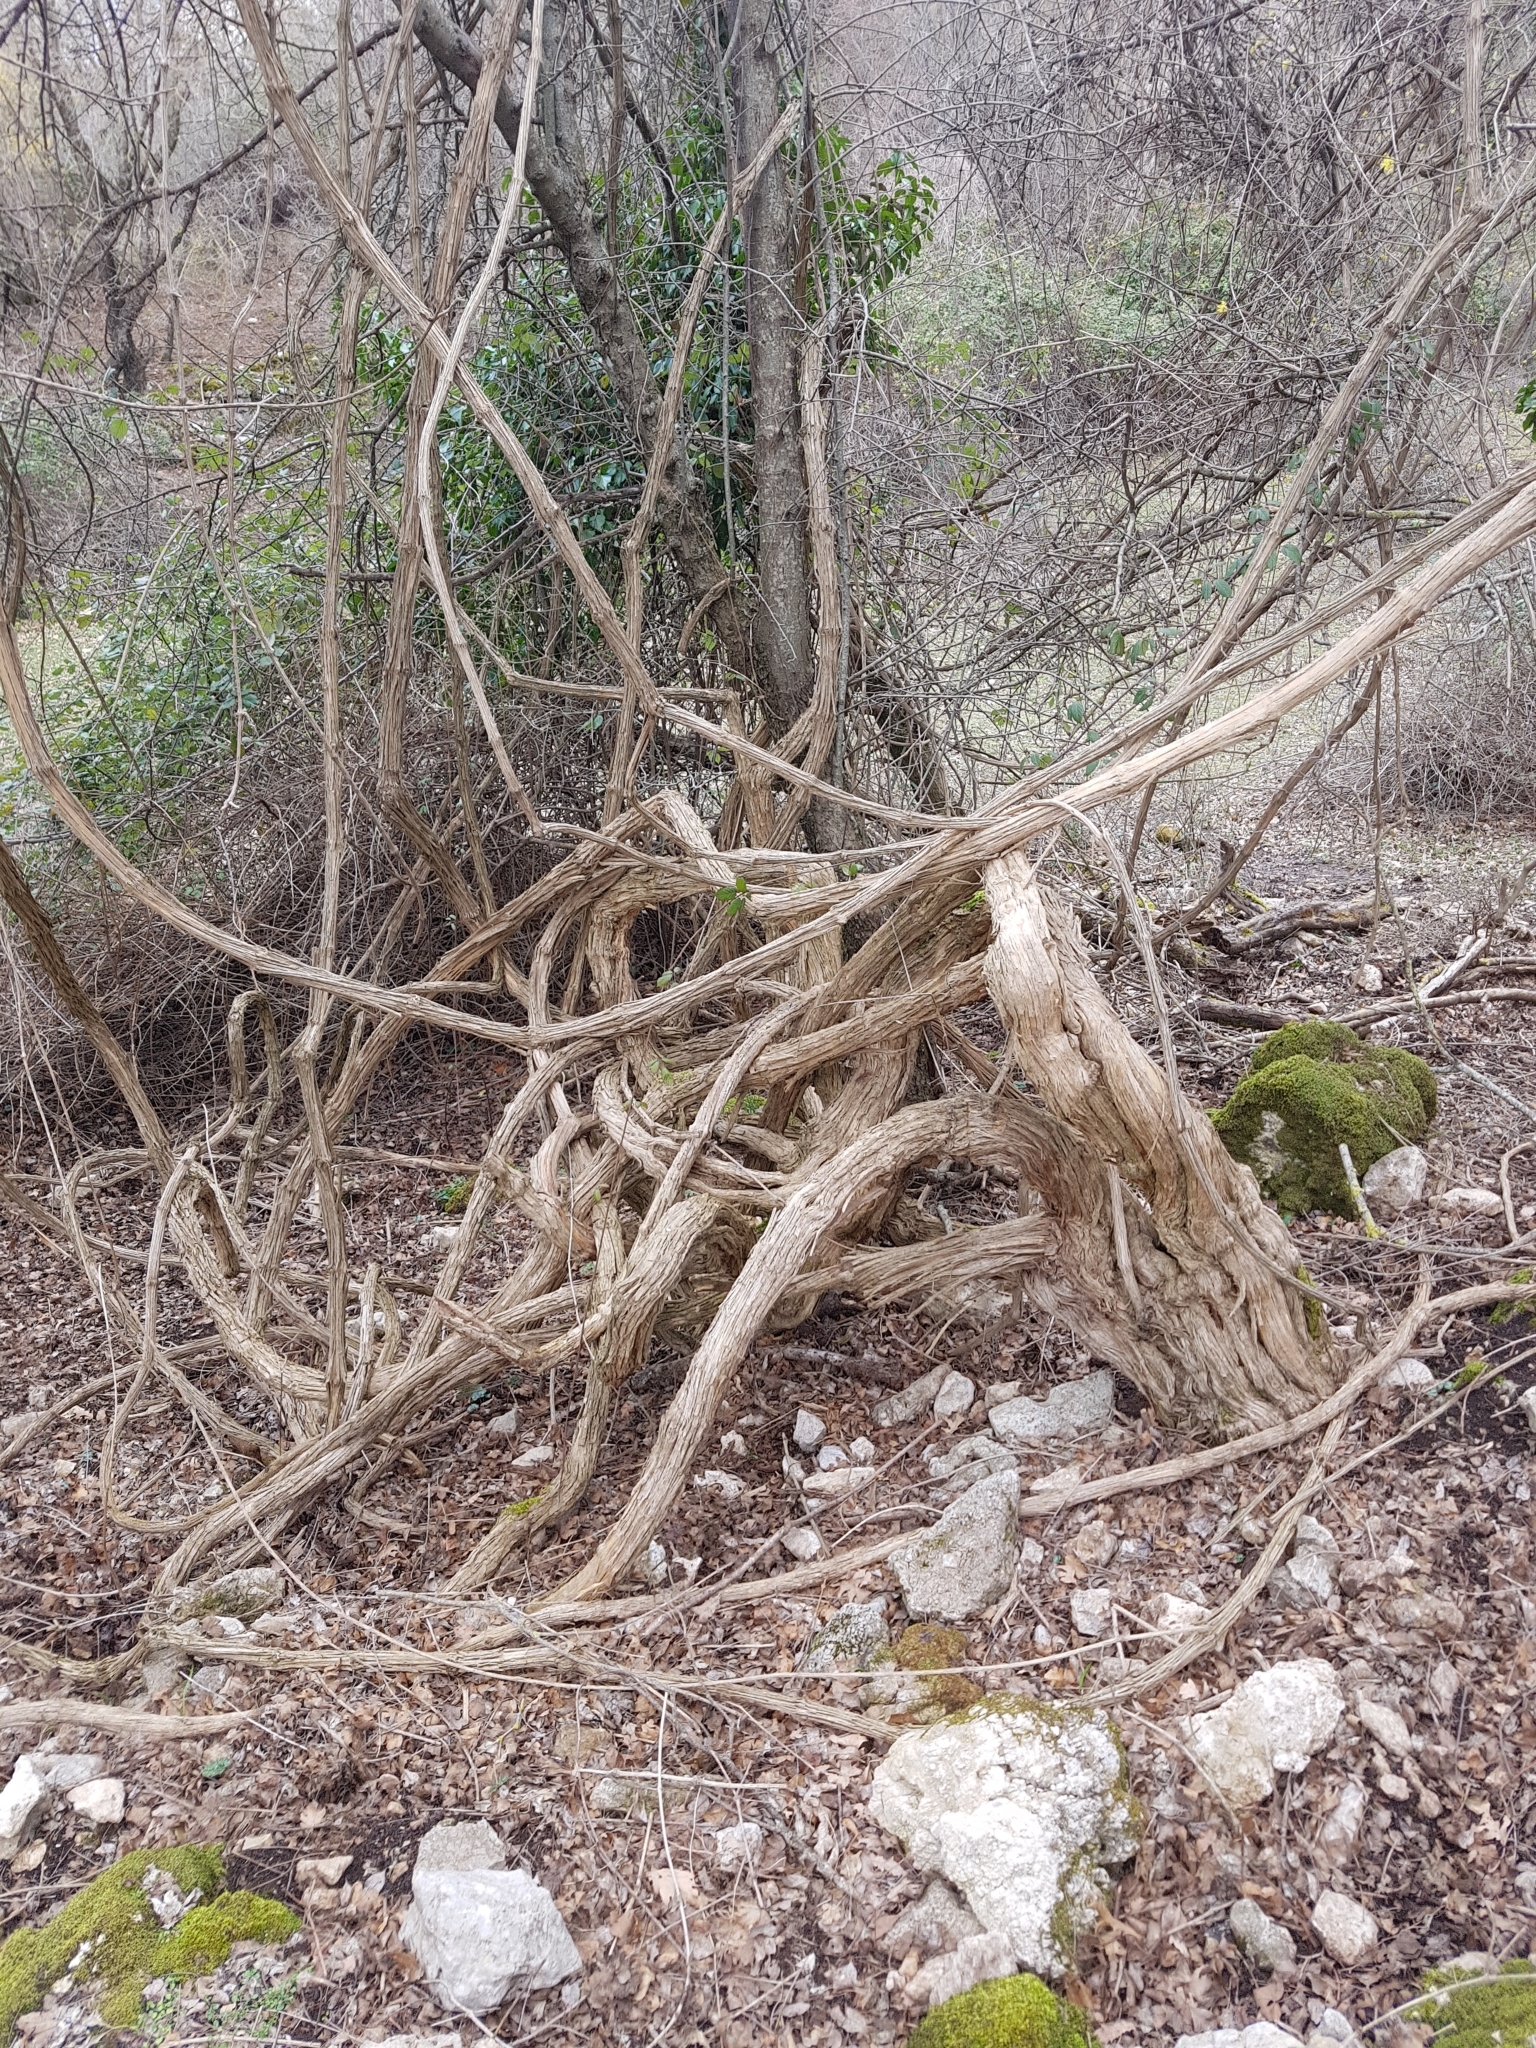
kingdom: Plantae
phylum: Tracheophyta
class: Magnoliopsida
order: Ranunculales
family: Ranunculaceae
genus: Clematis
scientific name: Clematis vitalba
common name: Evergreen clematis
